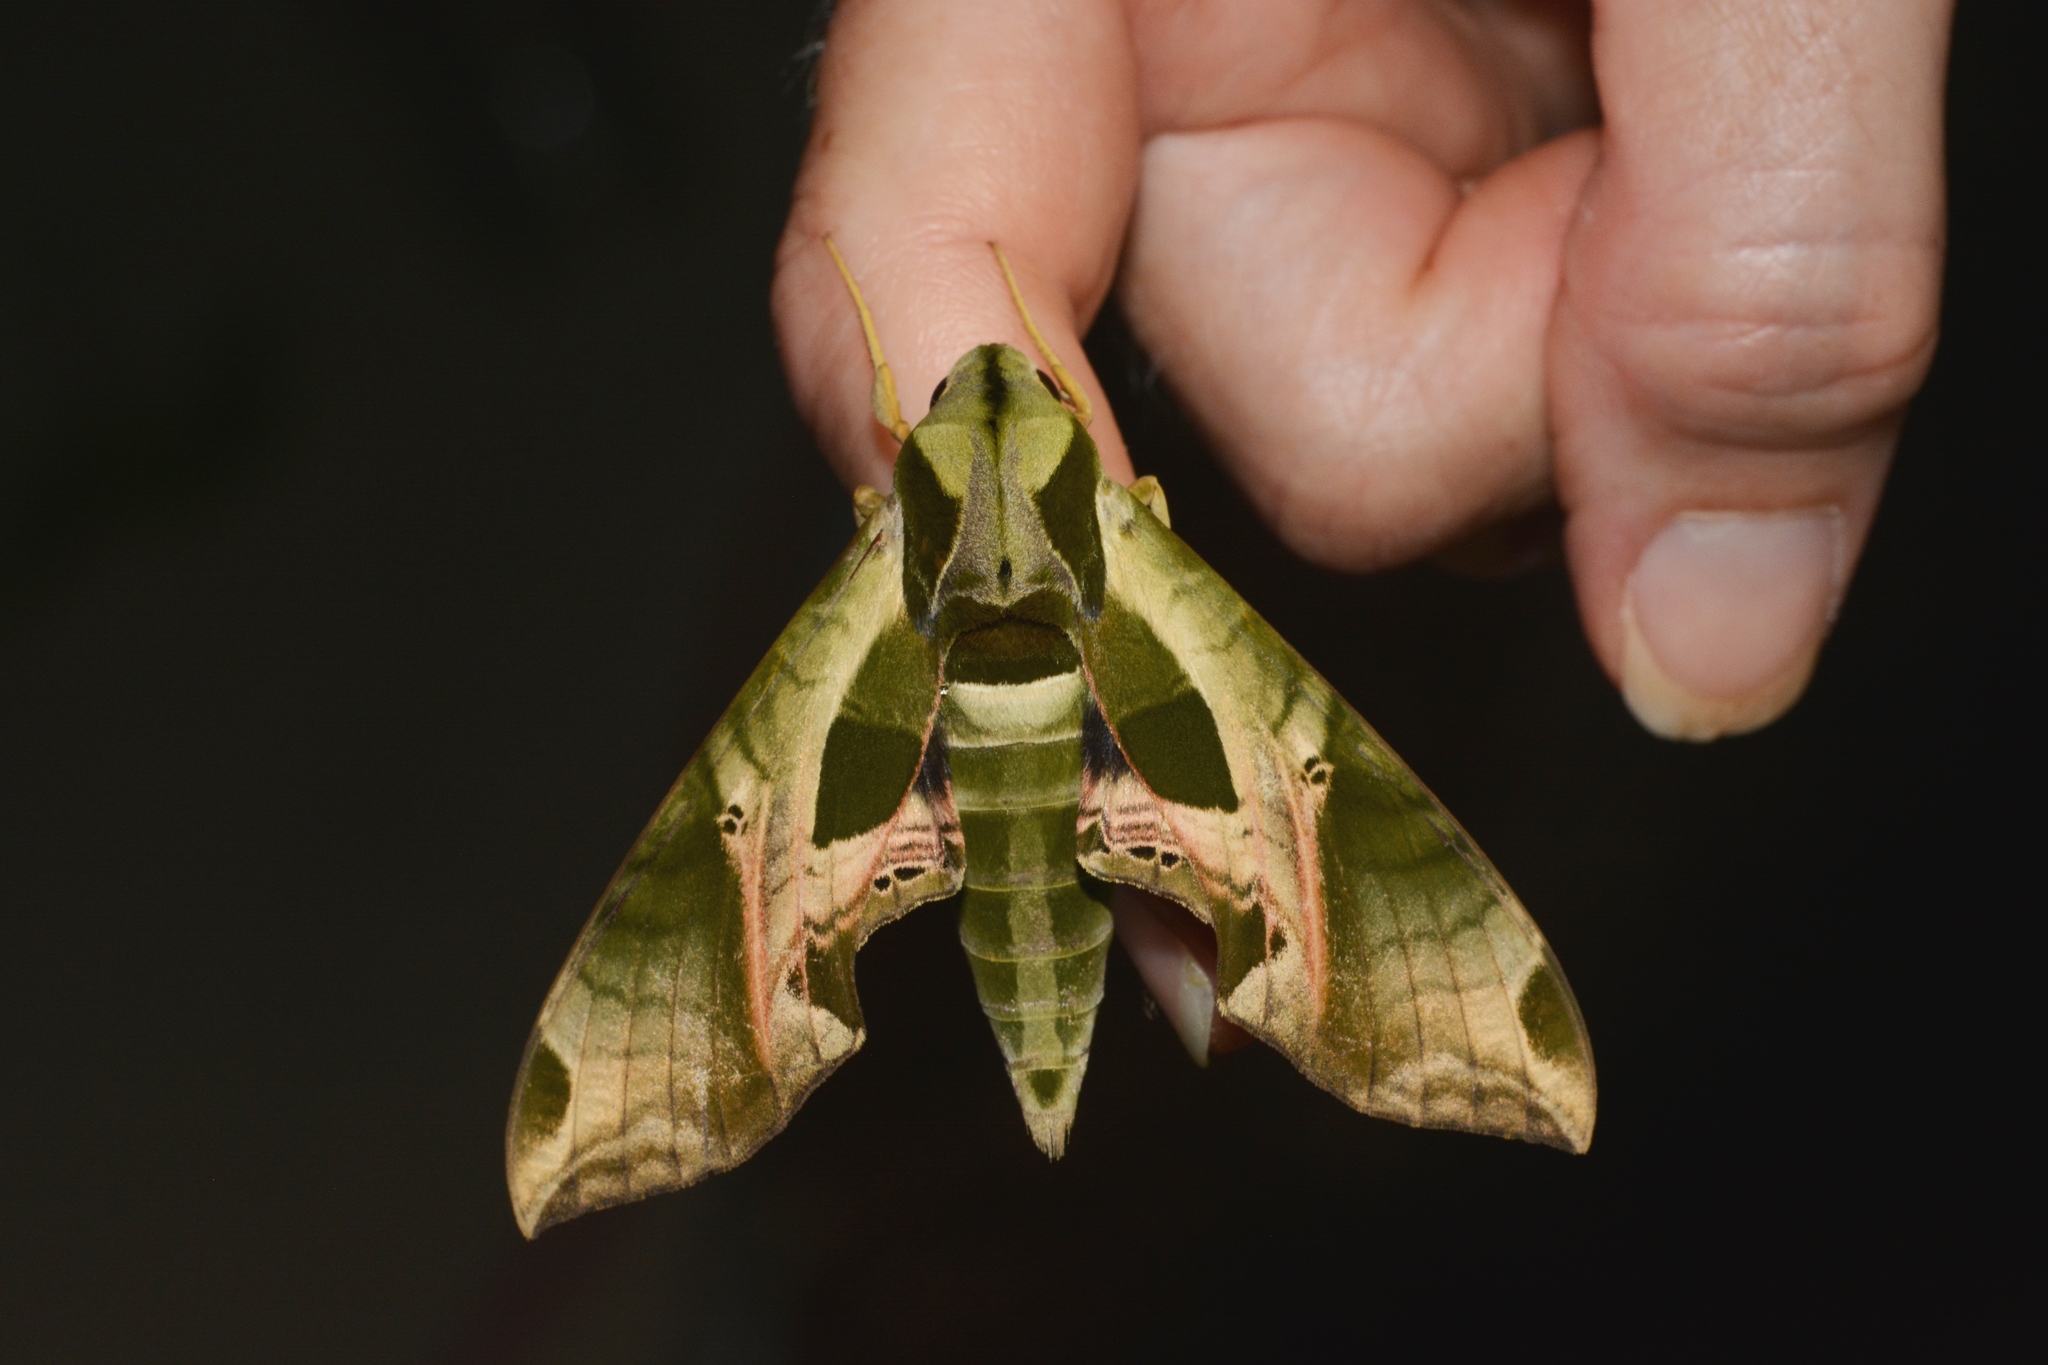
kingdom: Animalia
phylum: Arthropoda
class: Insecta
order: Lepidoptera
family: Sphingidae
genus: Eumorpha
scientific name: Eumorpha pandorus
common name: Pandora sphinx
